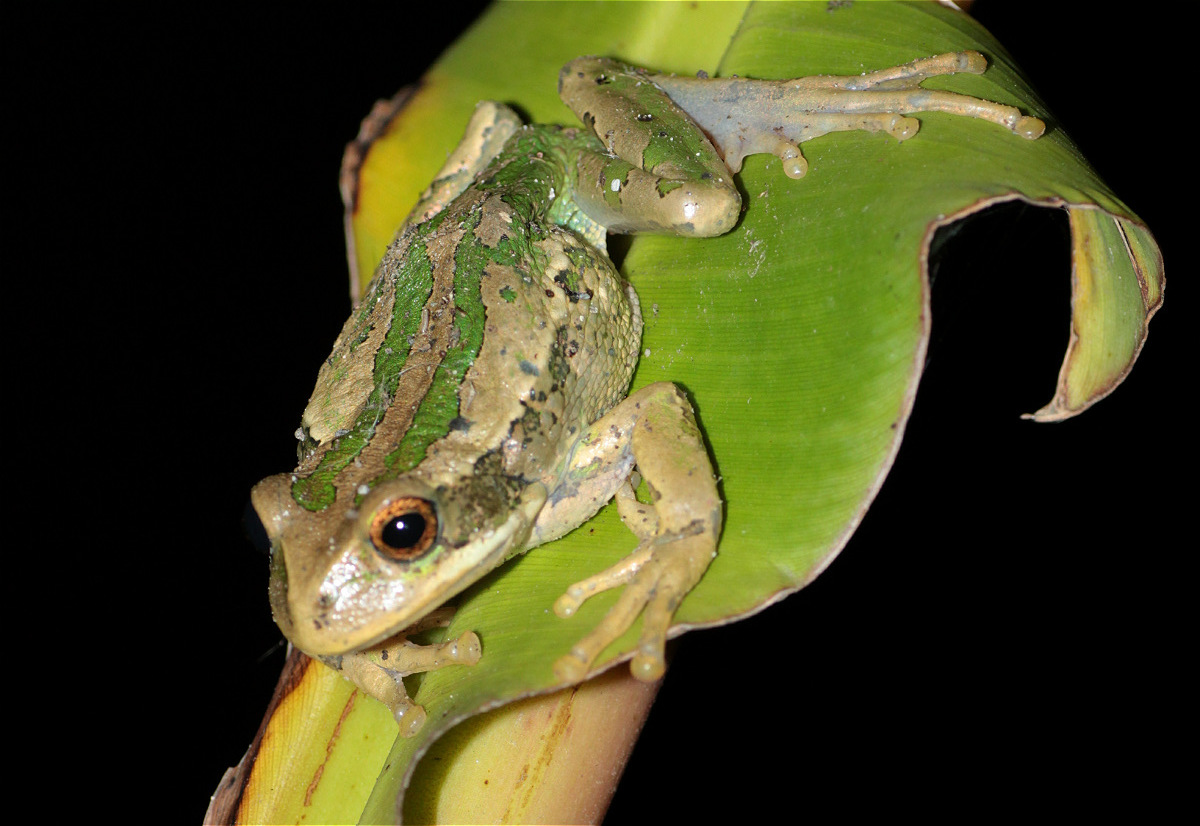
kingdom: Animalia
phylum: Chordata
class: Amphibia
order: Anura
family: Hemiphractidae
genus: Gastrotheca
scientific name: Gastrotheca cuencana
